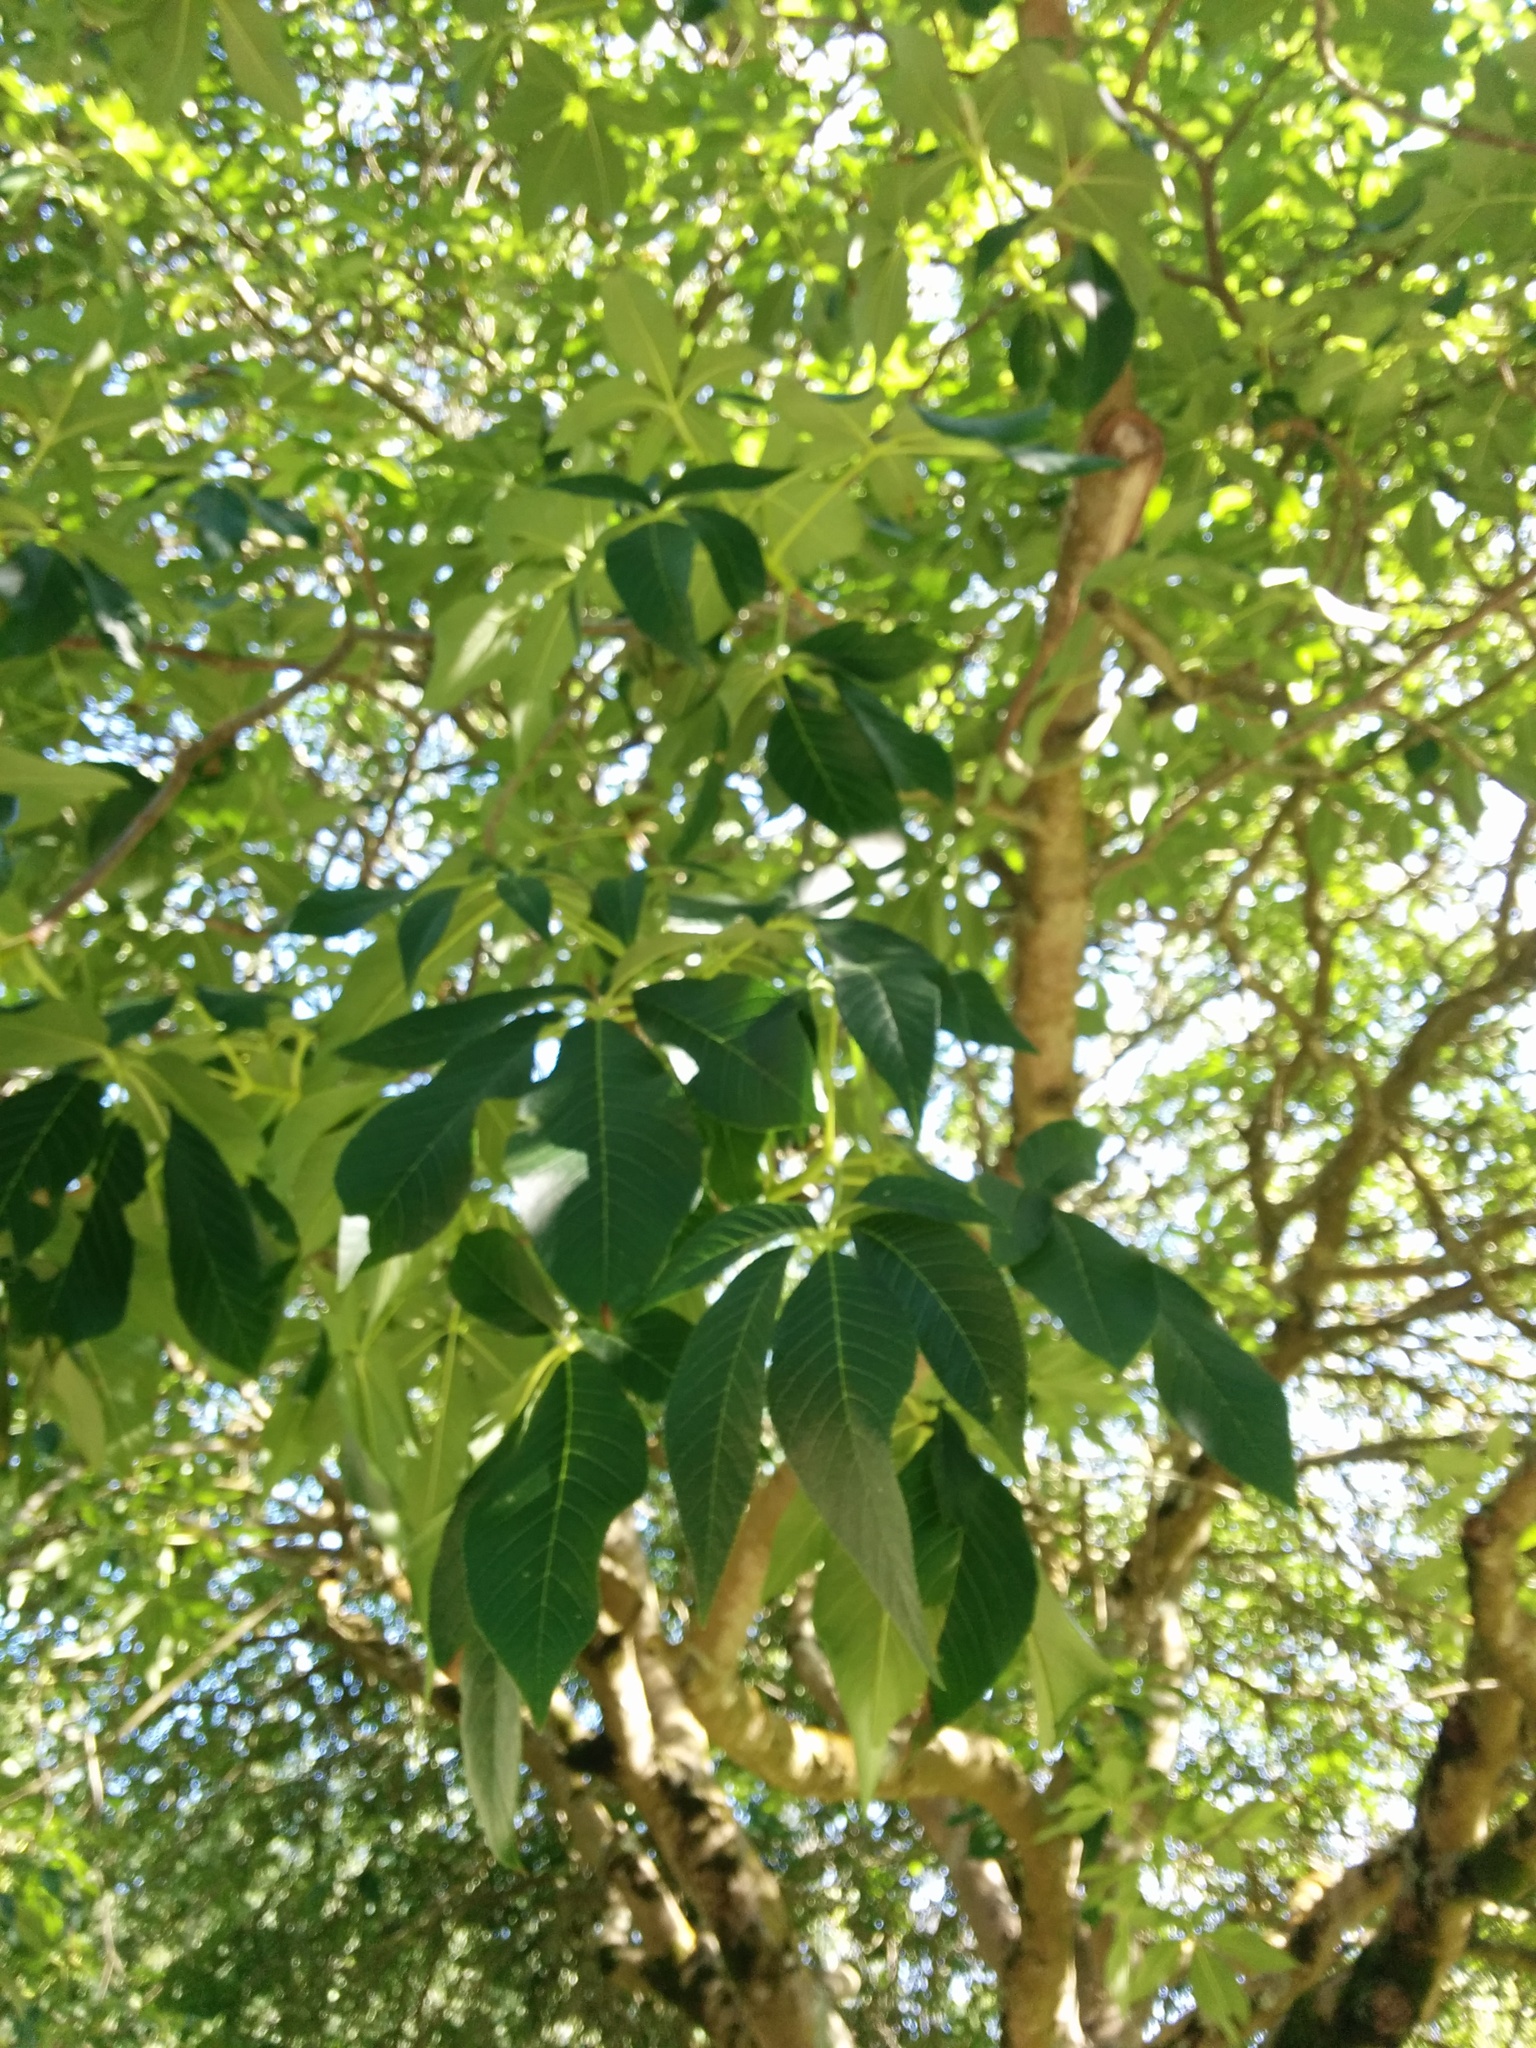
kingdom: Plantae
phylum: Tracheophyta
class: Magnoliopsida
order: Sapindales
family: Sapindaceae
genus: Aesculus
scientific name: Aesculus californica
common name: California buckeye
